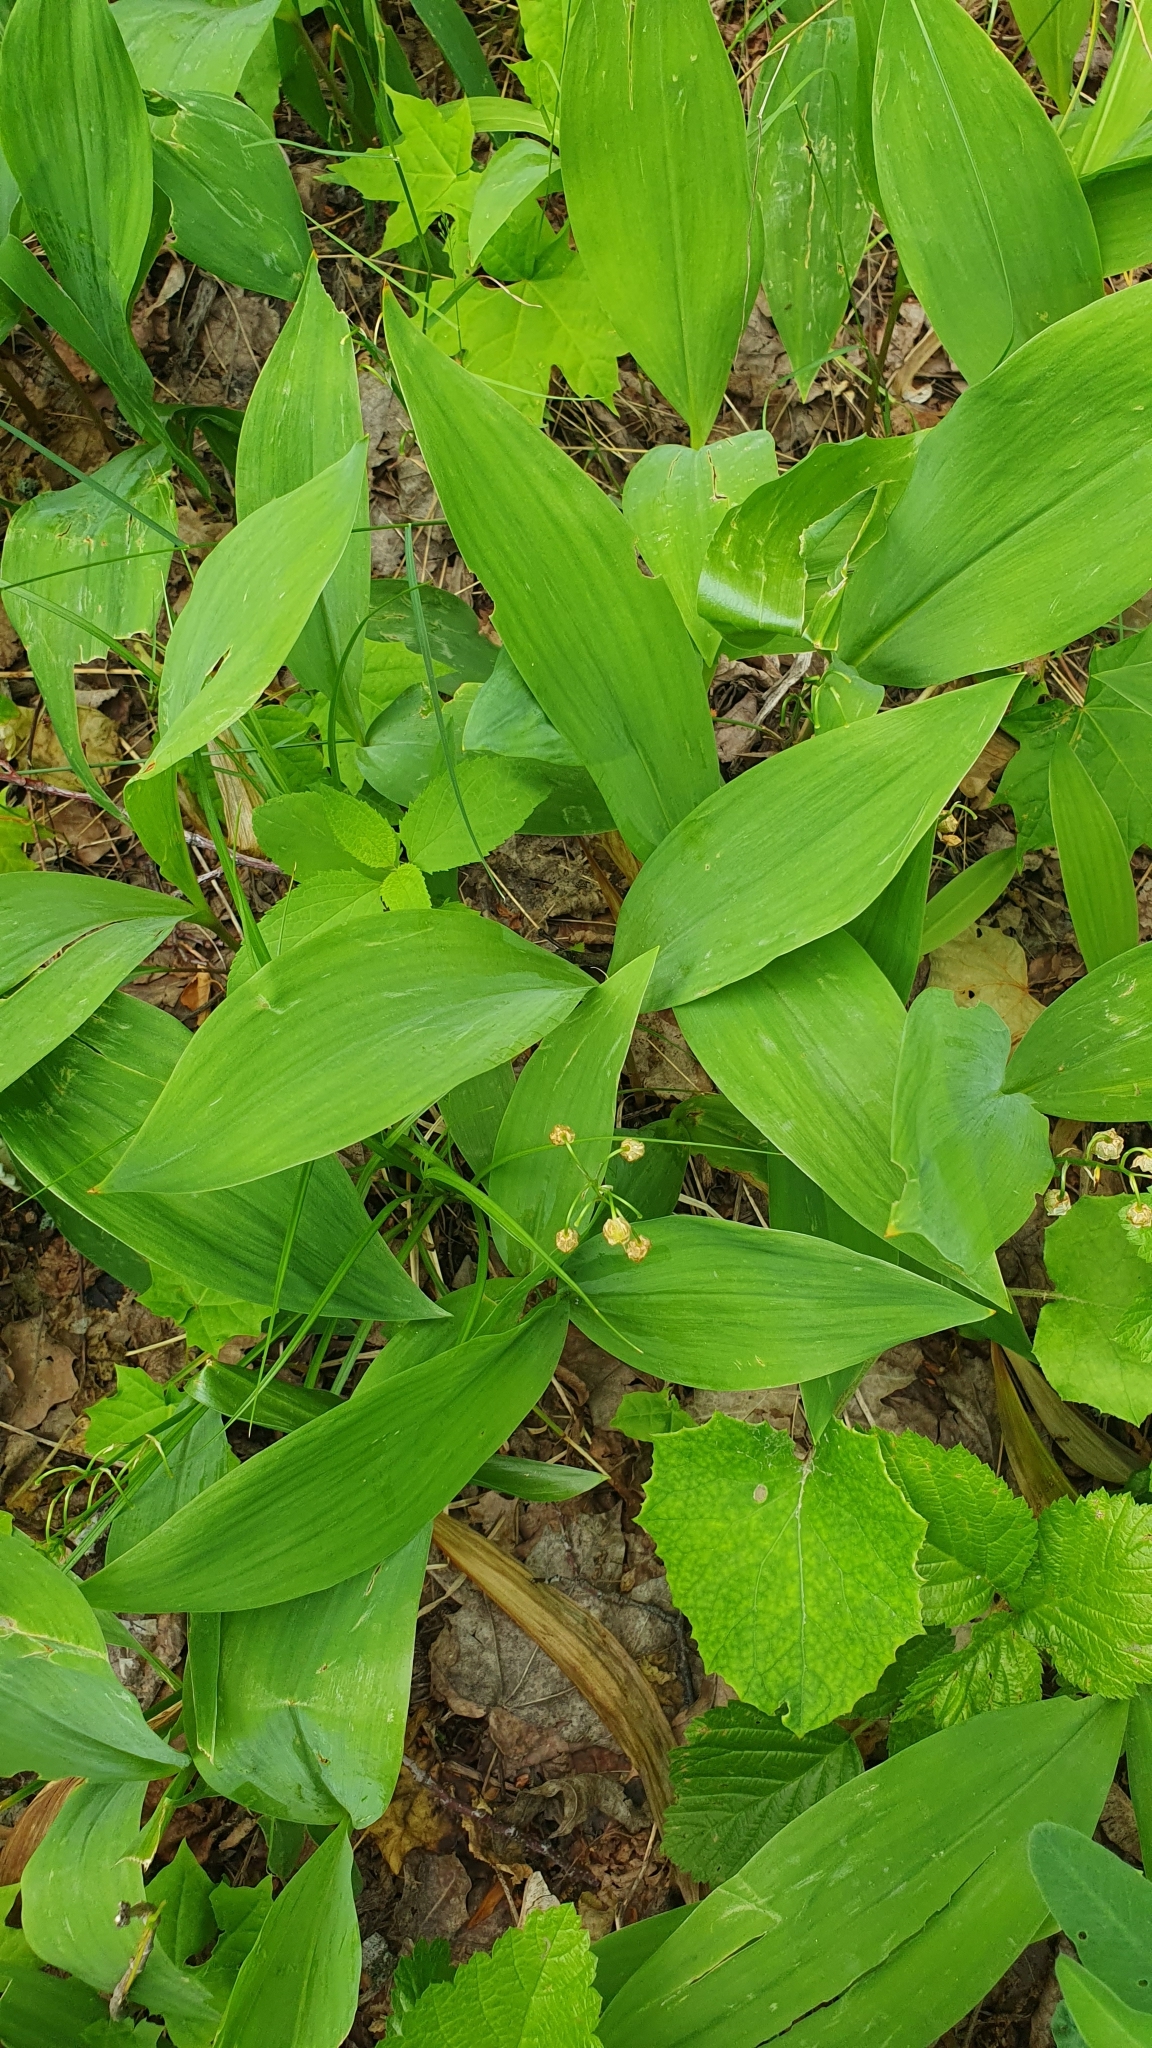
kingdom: Plantae
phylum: Tracheophyta
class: Liliopsida
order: Asparagales
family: Asparagaceae
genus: Convallaria
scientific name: Convallaria majalis
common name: Lily-of-the-valley
